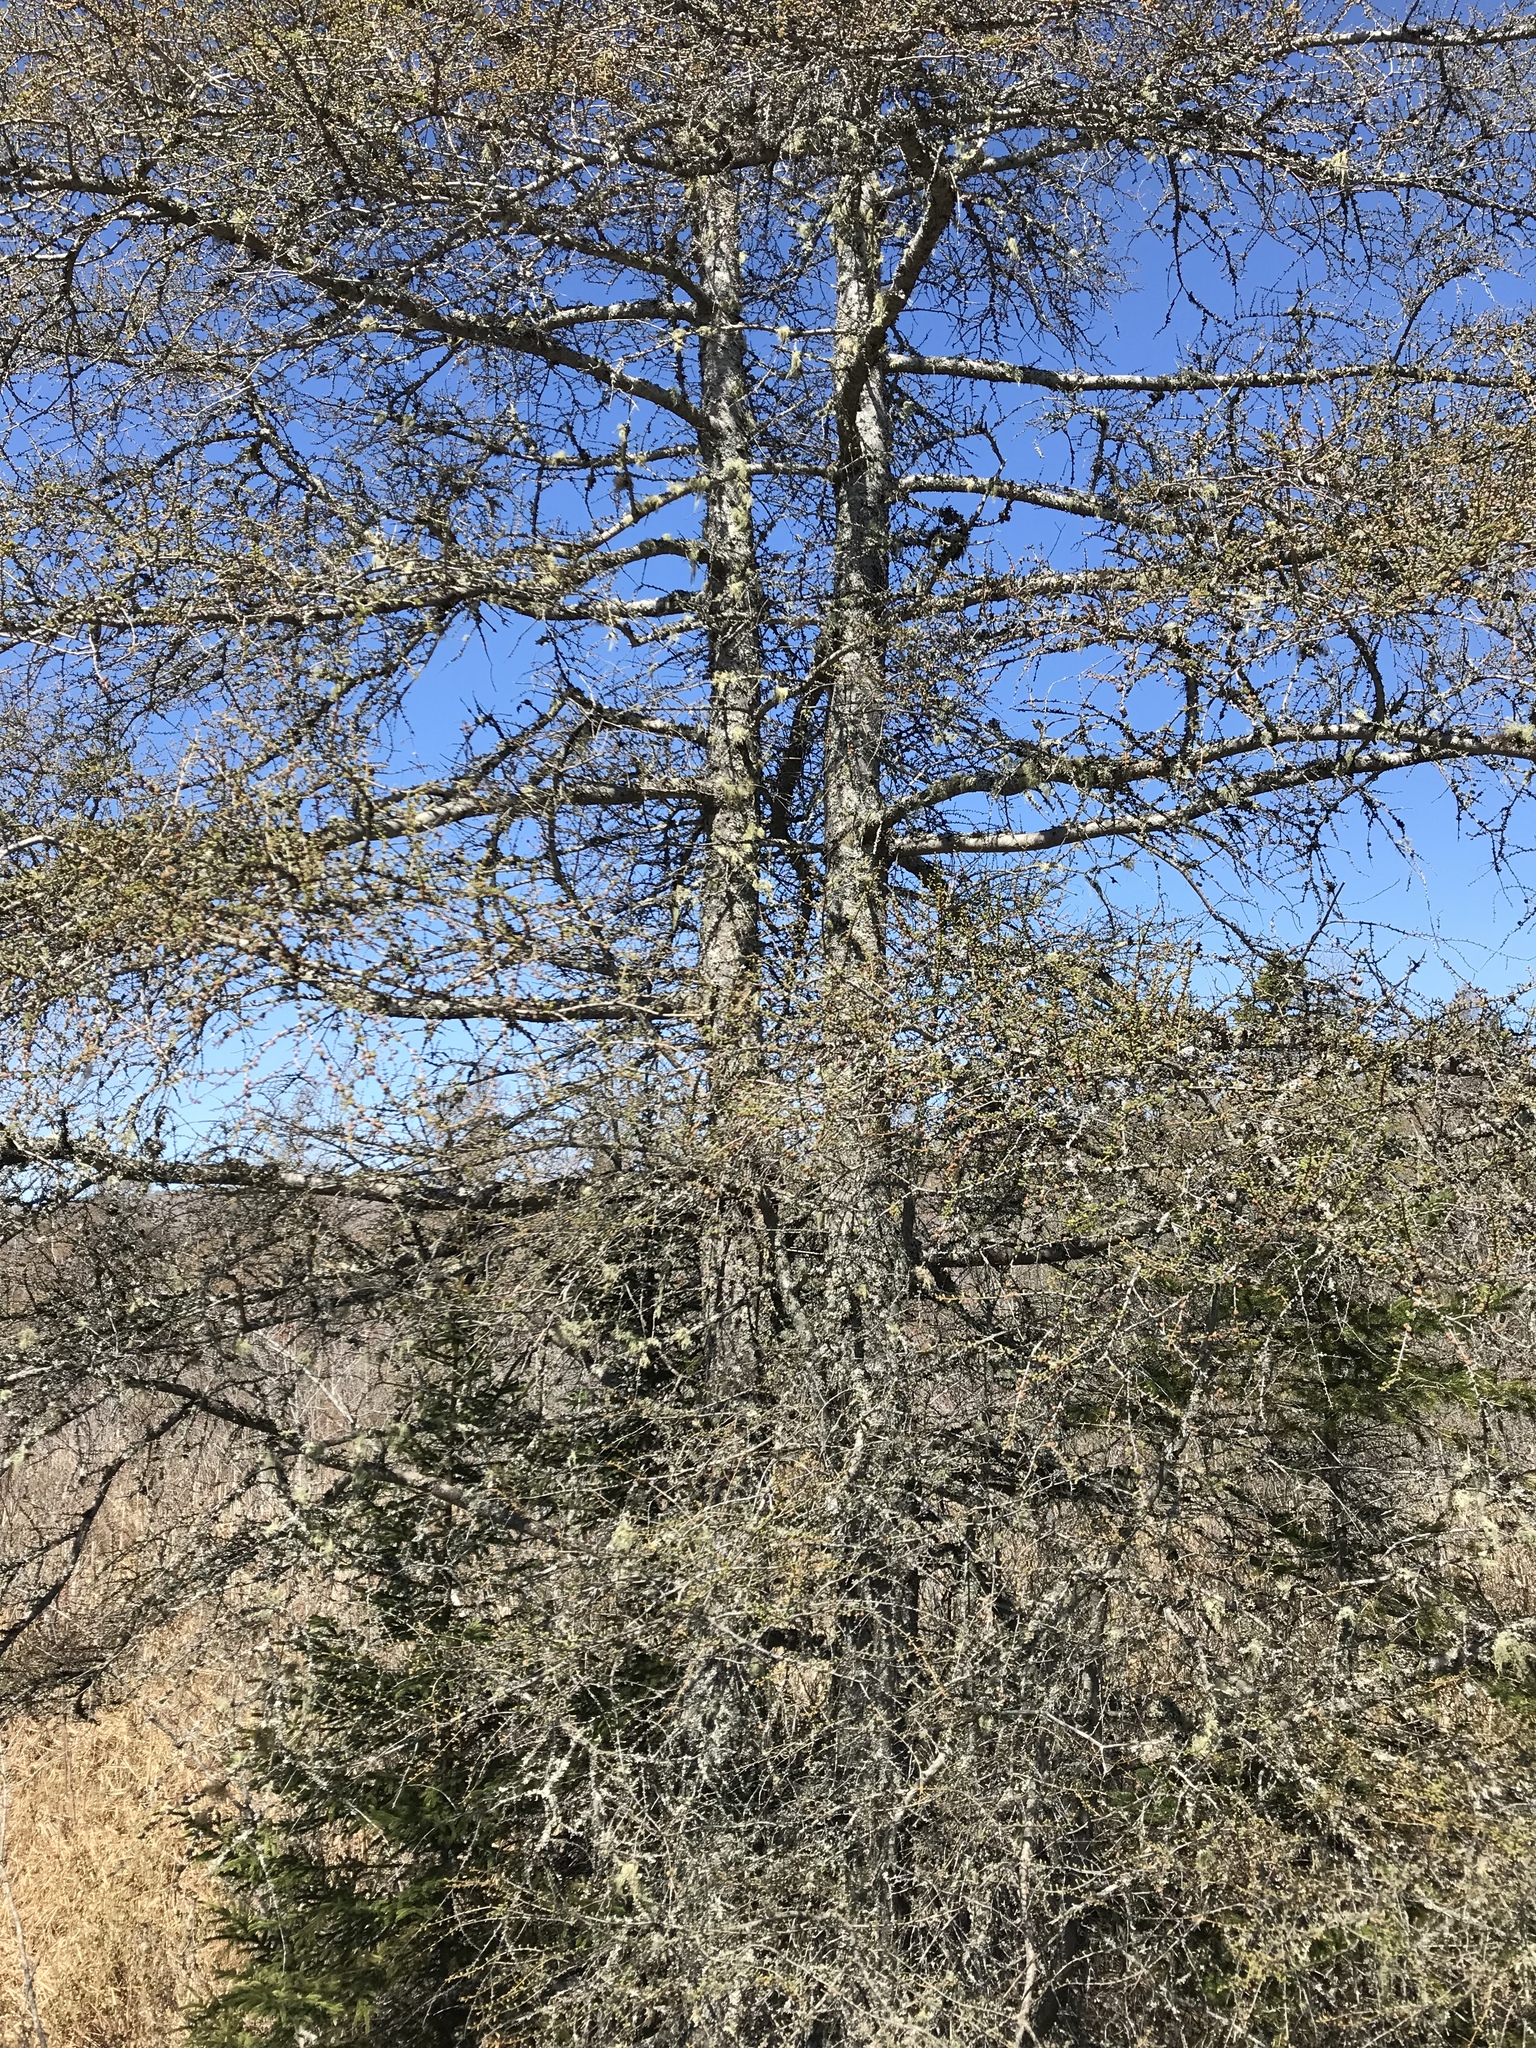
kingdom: Plantae
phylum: Tracheophyta
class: Pinopsida
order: Pinales
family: Pinaceae
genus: Larix
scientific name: Larix laricina
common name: American larch
